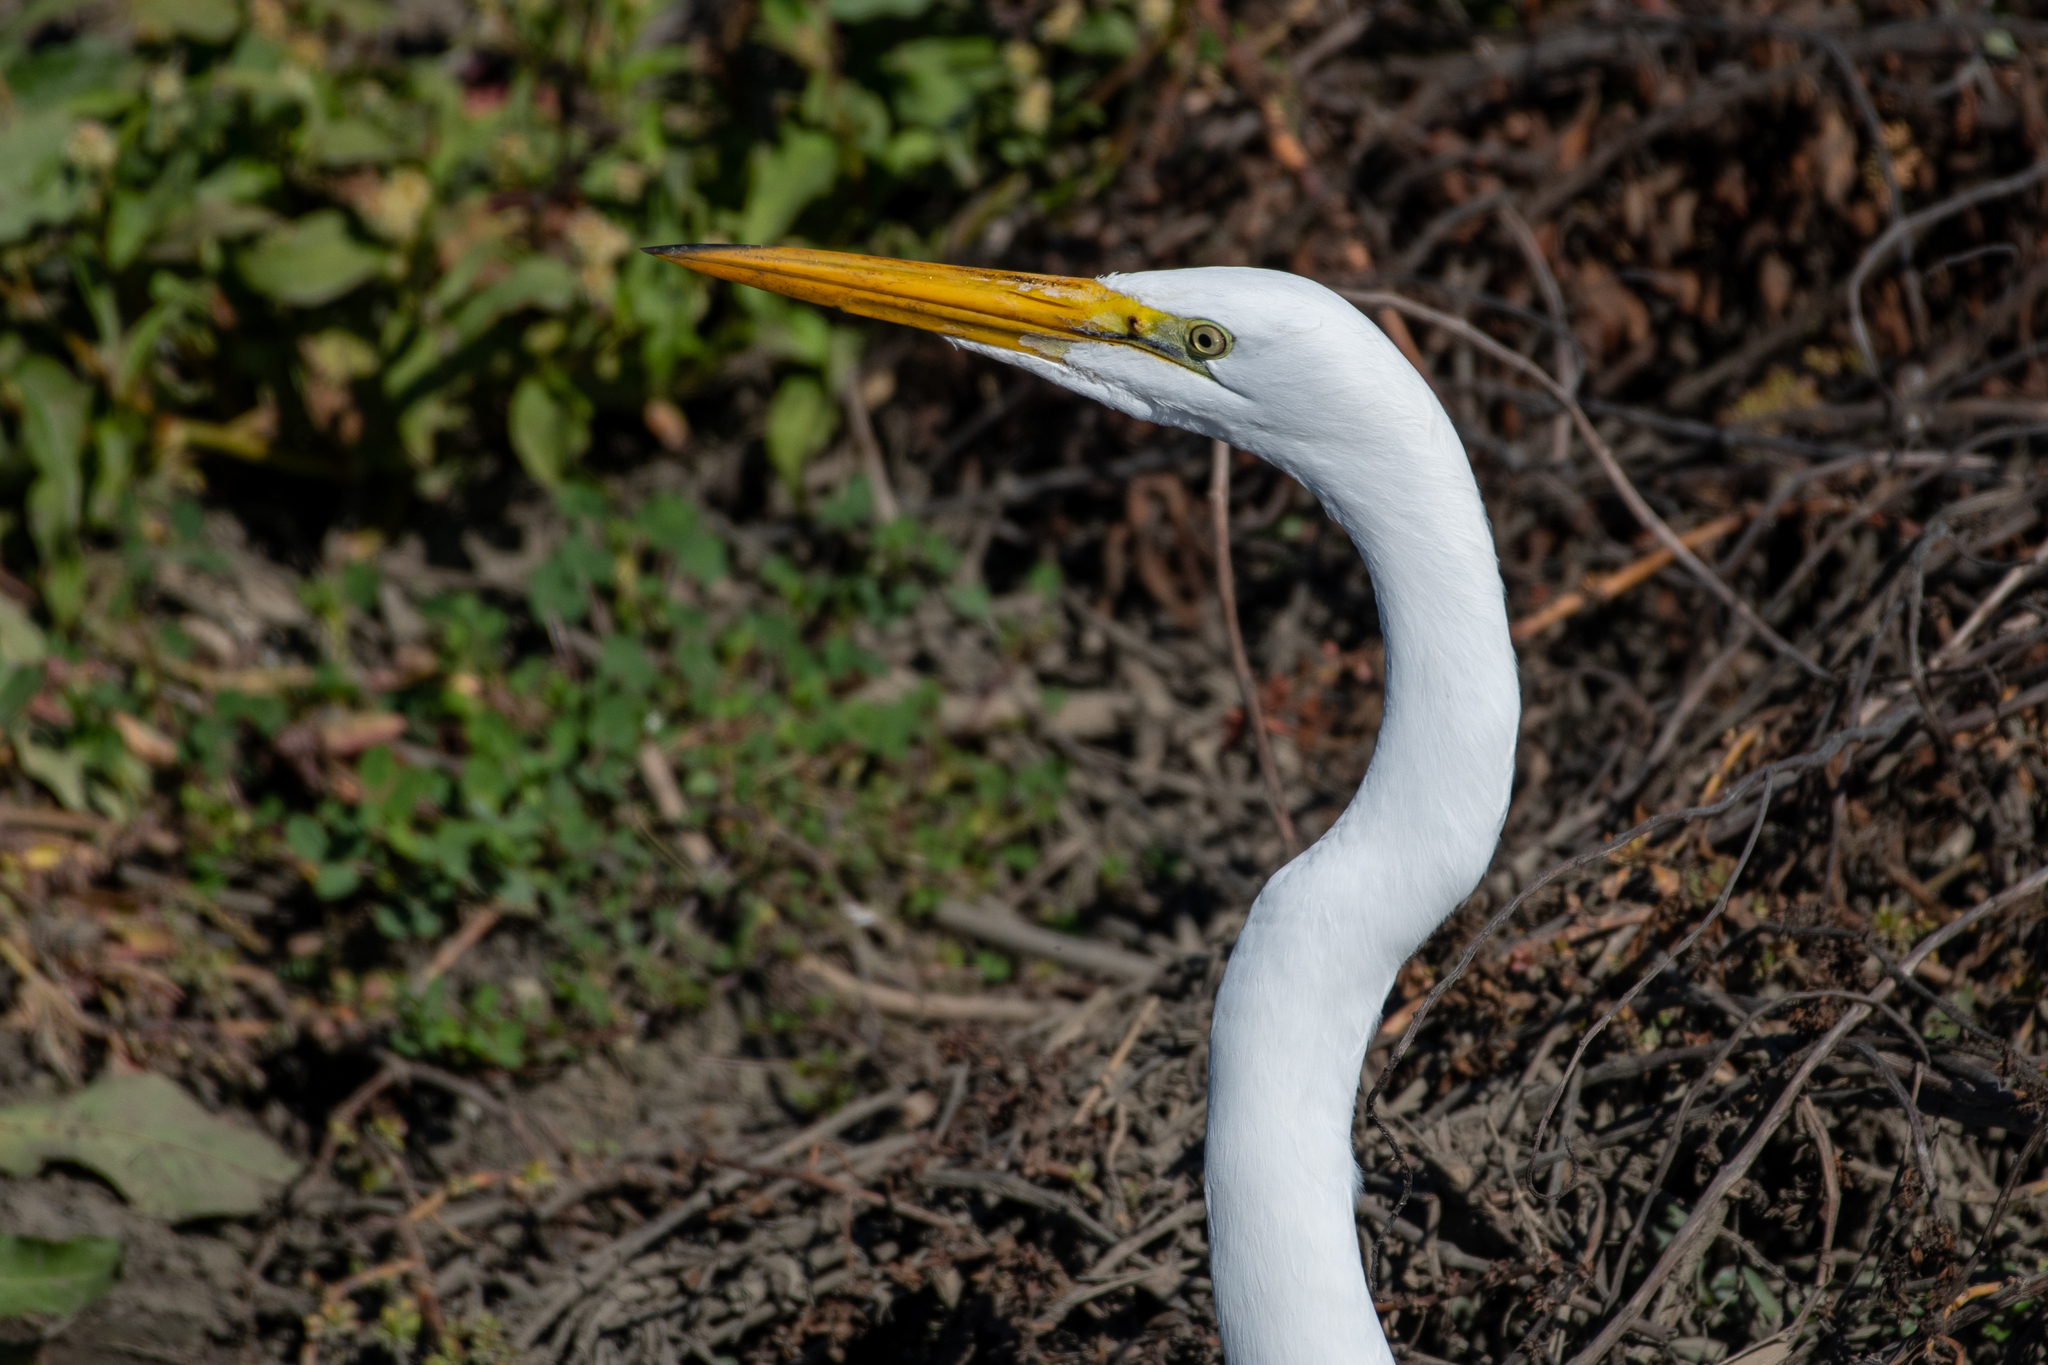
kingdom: Animalia
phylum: Chordata
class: Aves
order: Pelecaniformes
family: Ardeidae
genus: Ardea
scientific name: Ardea alba
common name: Great egret
